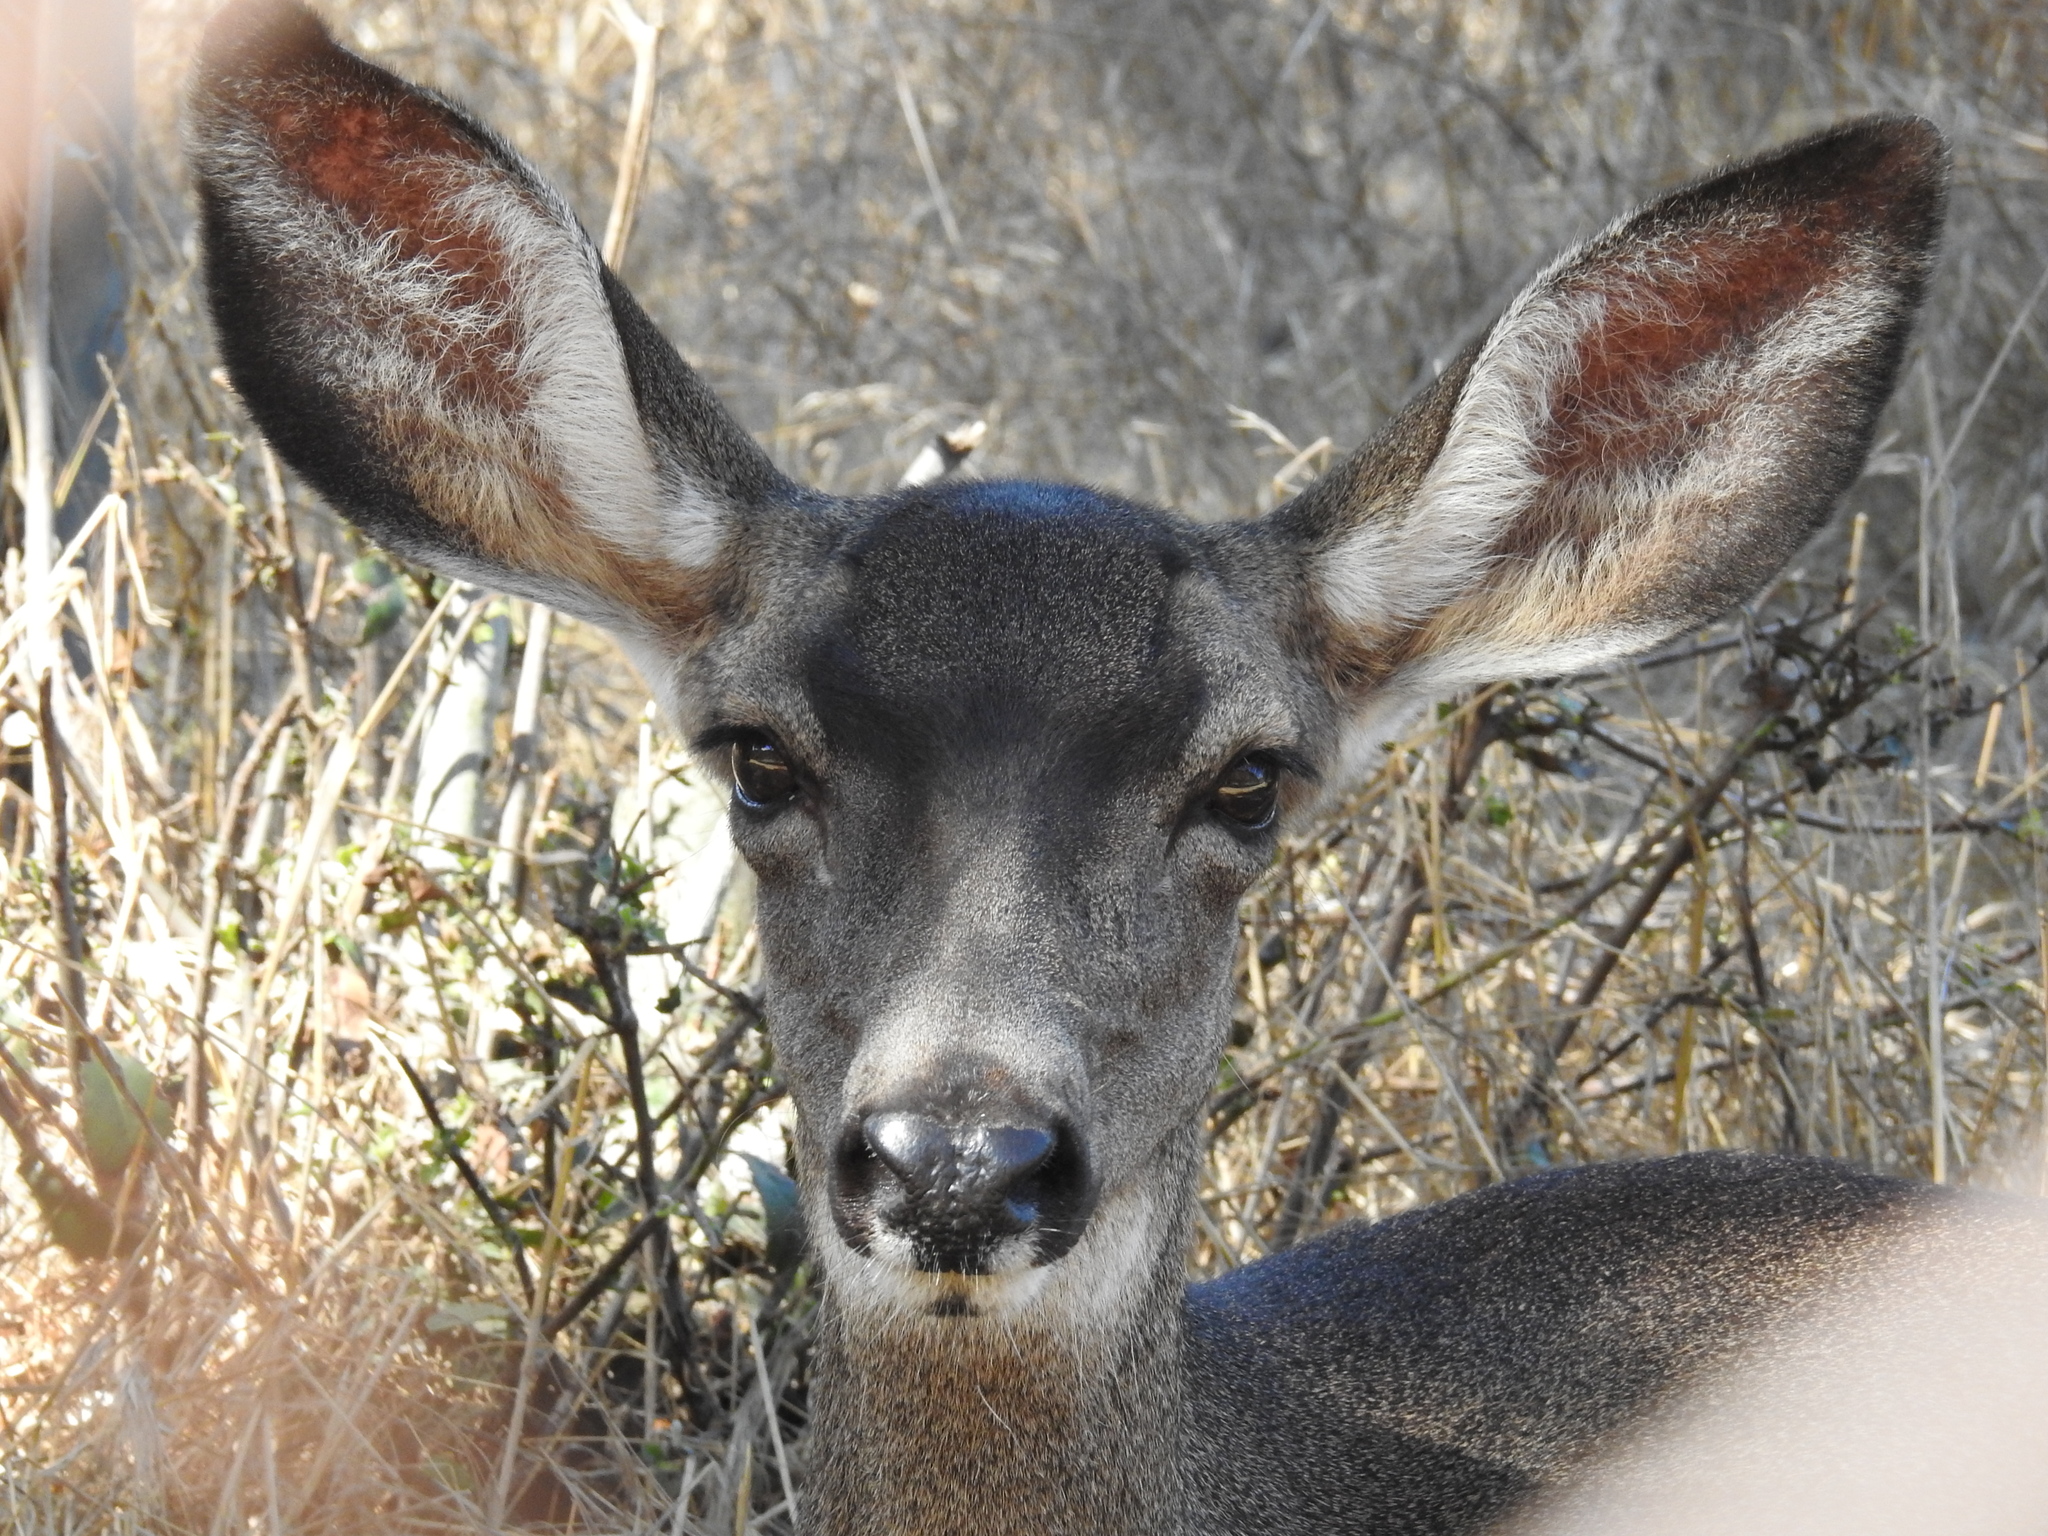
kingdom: Animalia
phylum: Chordata
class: Mammalia
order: Artiodactyla
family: Cervidae
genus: Odocoileus
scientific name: Odocoileus hemionus
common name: Mule deer
